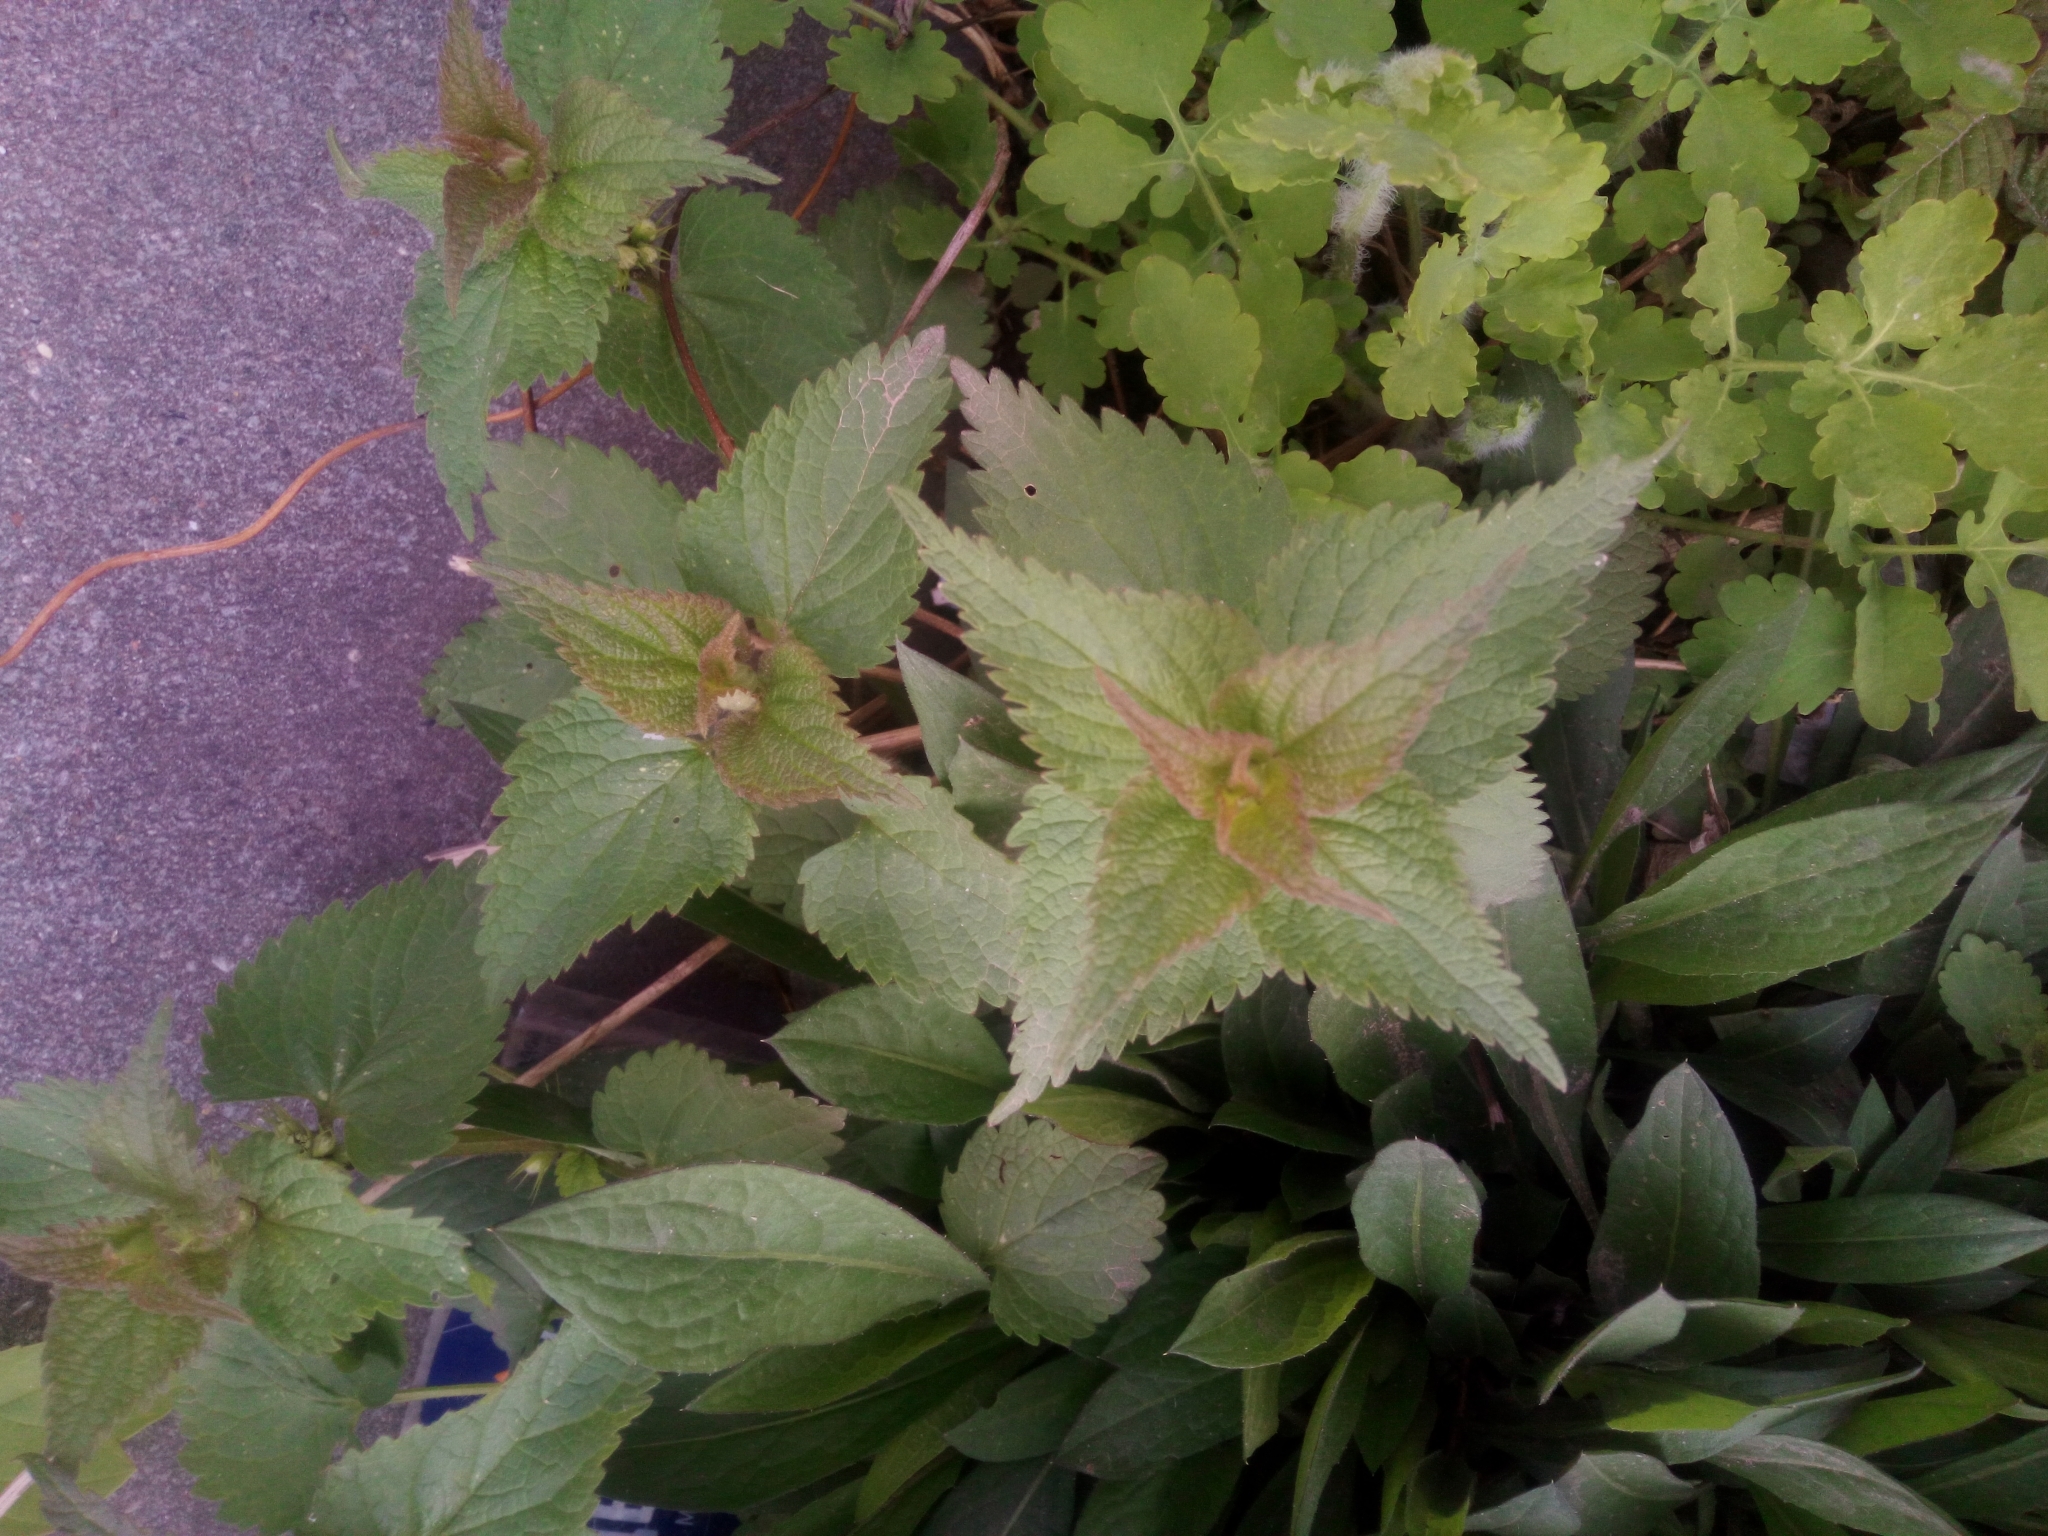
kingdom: Plantae
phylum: Tracheophyta
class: Magnoliopsida
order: Lamiales
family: Lamiaceae
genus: Lamium
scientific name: Lamium album
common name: White dead-nettle
